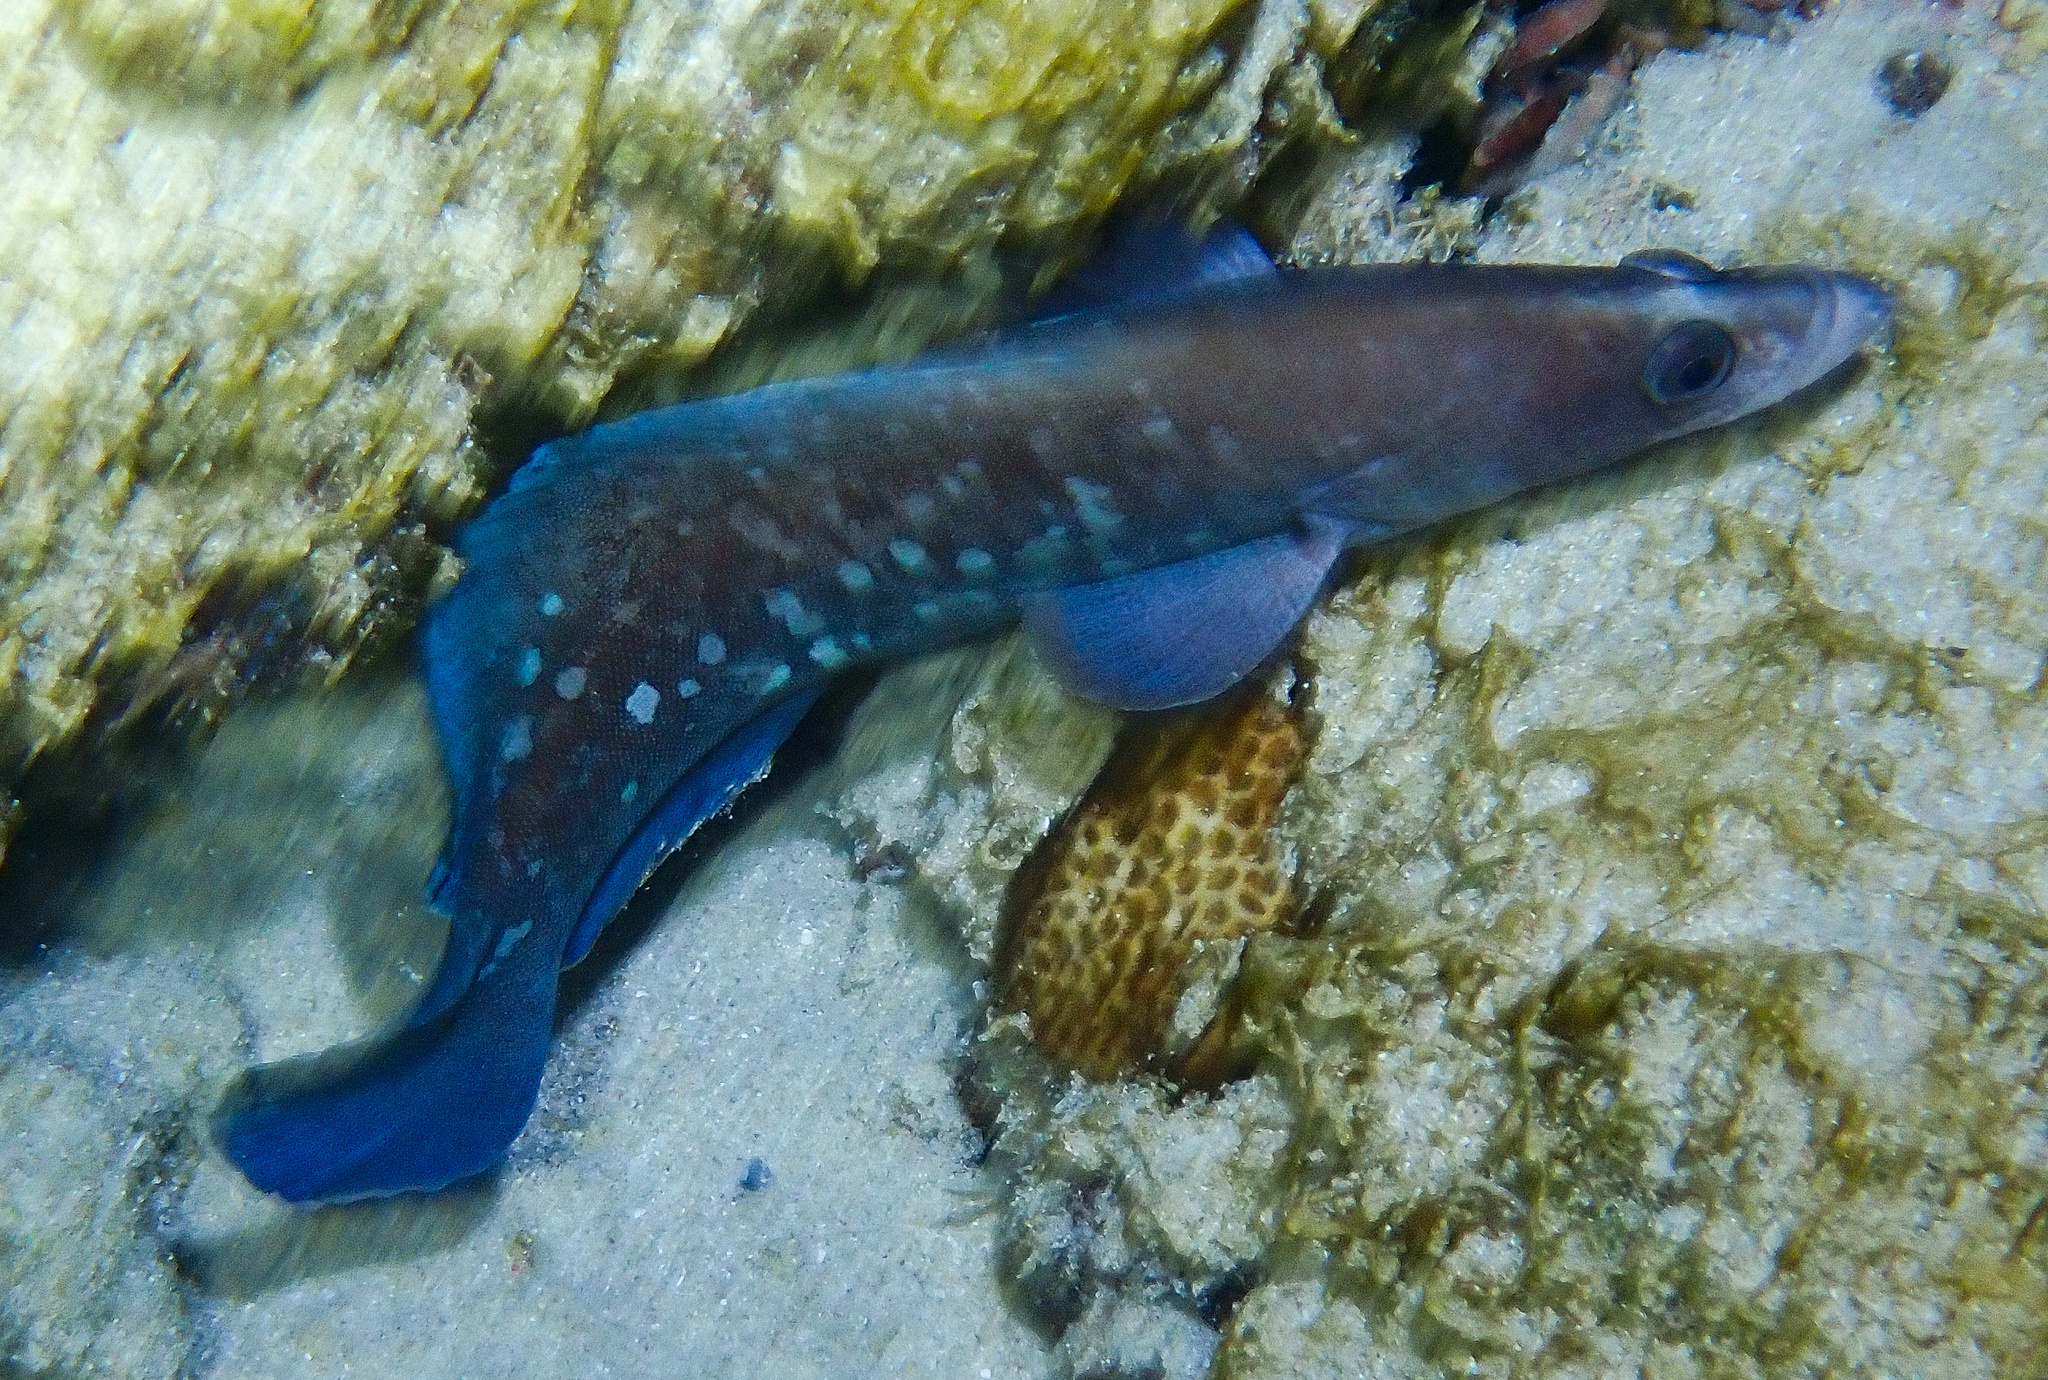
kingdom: Animalia
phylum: Chordata
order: Perciformes
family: Serranidae
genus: Rypticus
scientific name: Rypticus saponaceus
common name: Soapfish
